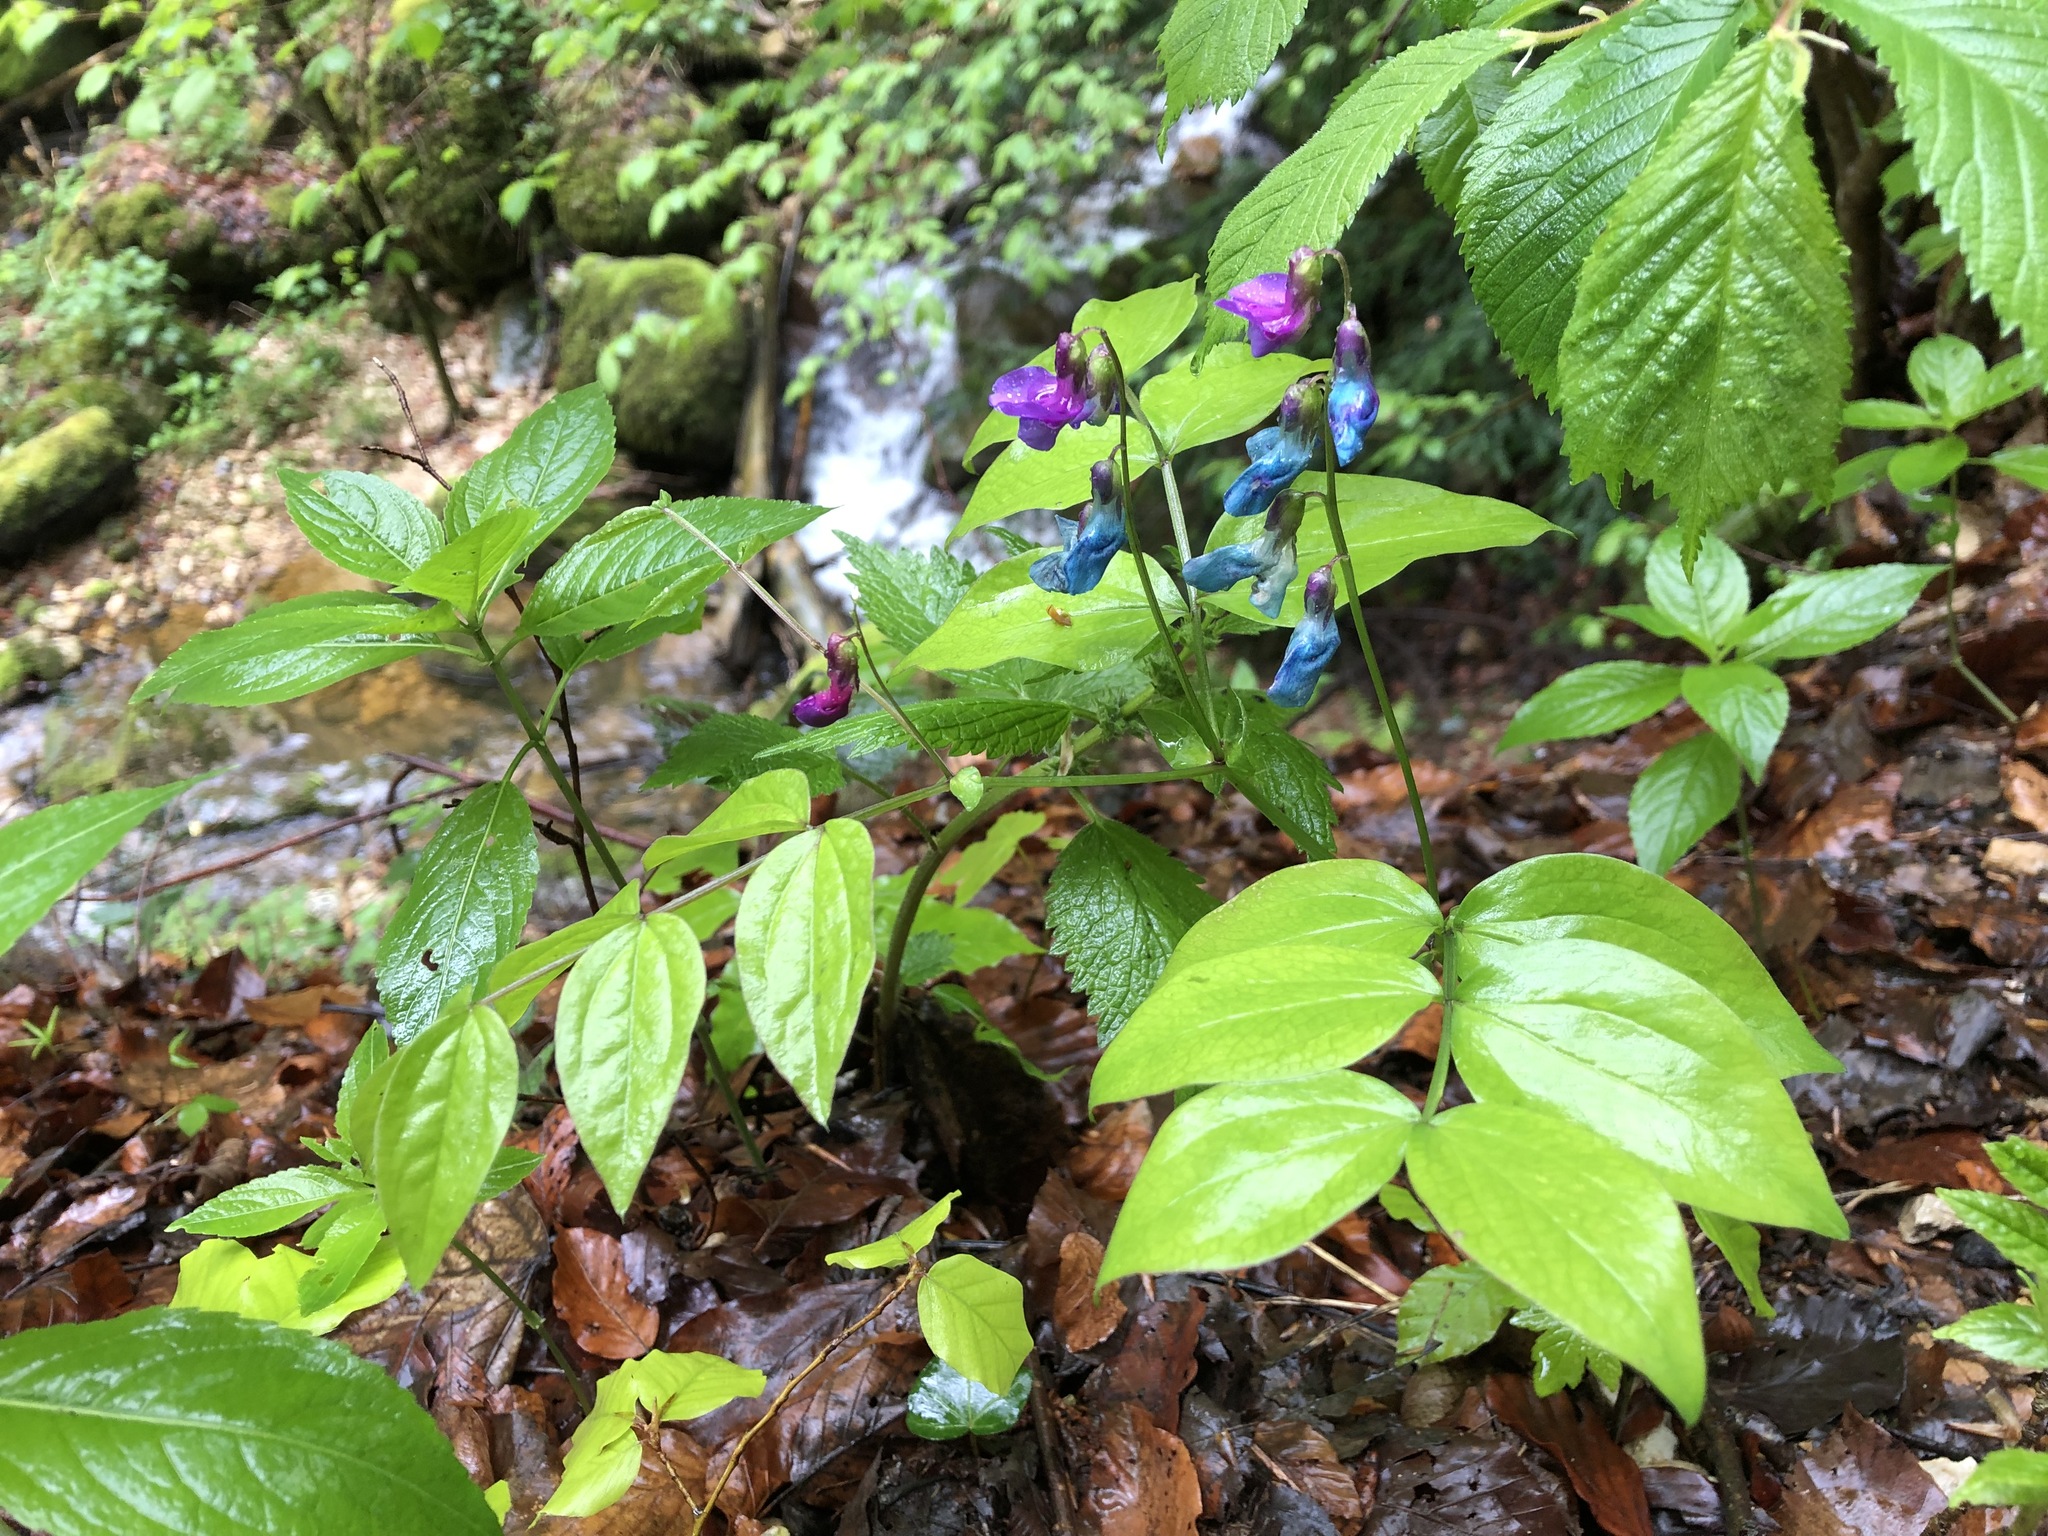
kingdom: Plantae
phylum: Tracheophyta
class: Magnoliopsida
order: Fabales
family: Fabaceae
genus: Lathyrus
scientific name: Lathyrus vernus
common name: Spring pea
